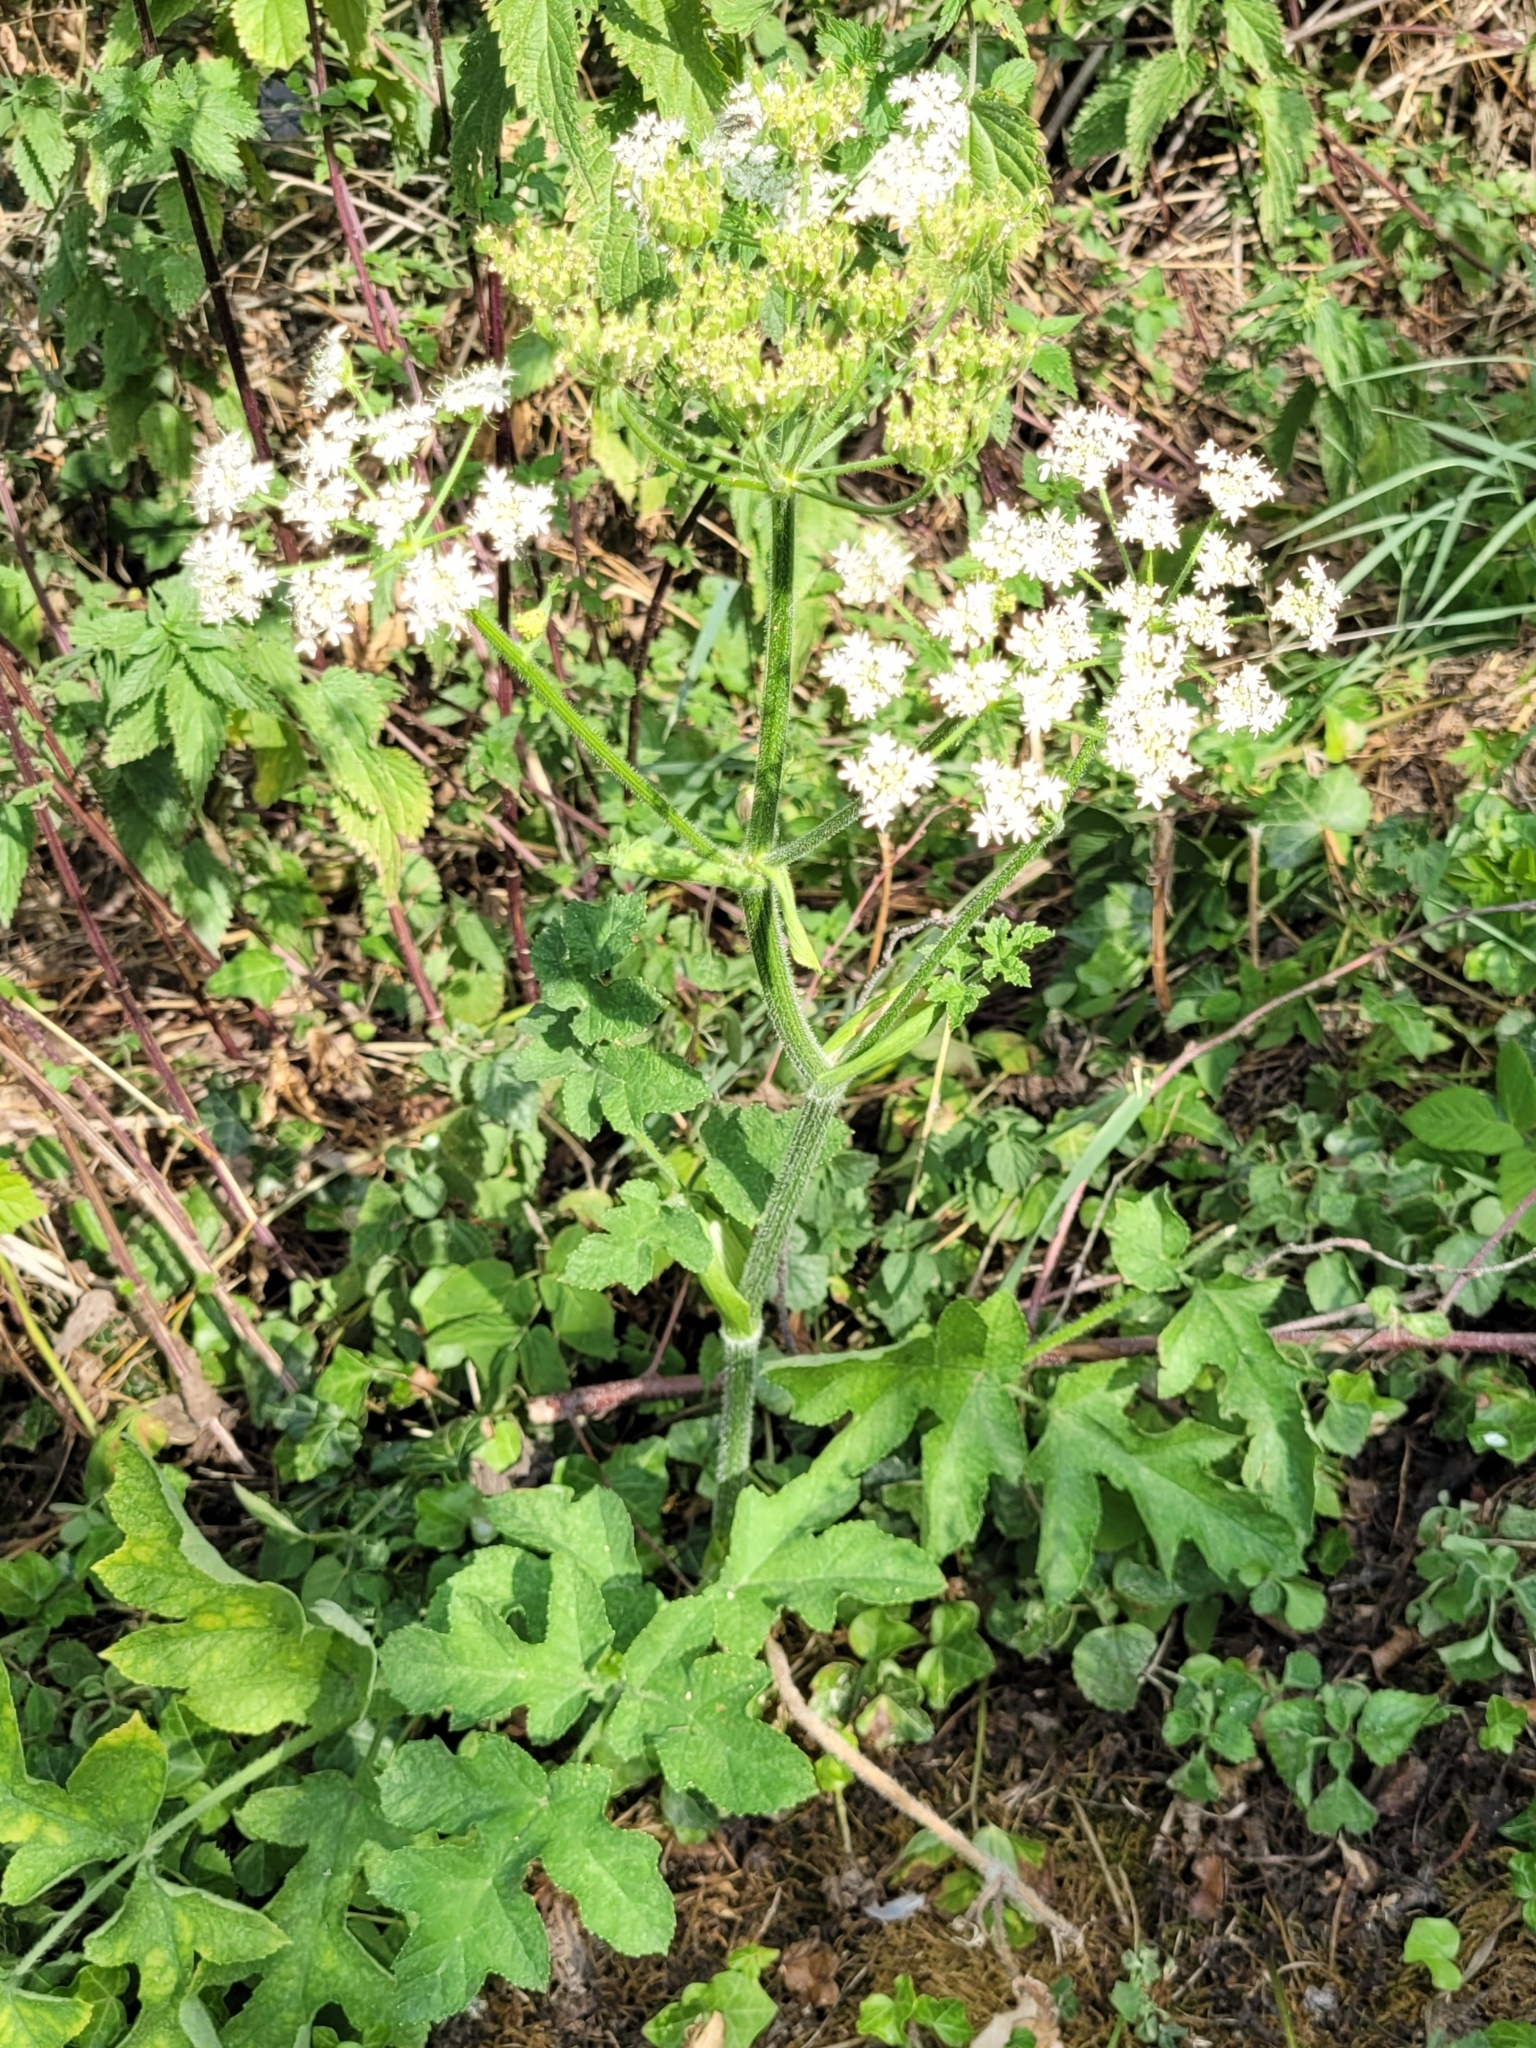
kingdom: Plantae
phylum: Tracheophyta
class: Magnoliopsida
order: Apiales
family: Apiaceae
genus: Heracleum
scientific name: Heracleum sphondylium
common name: Hogweed
